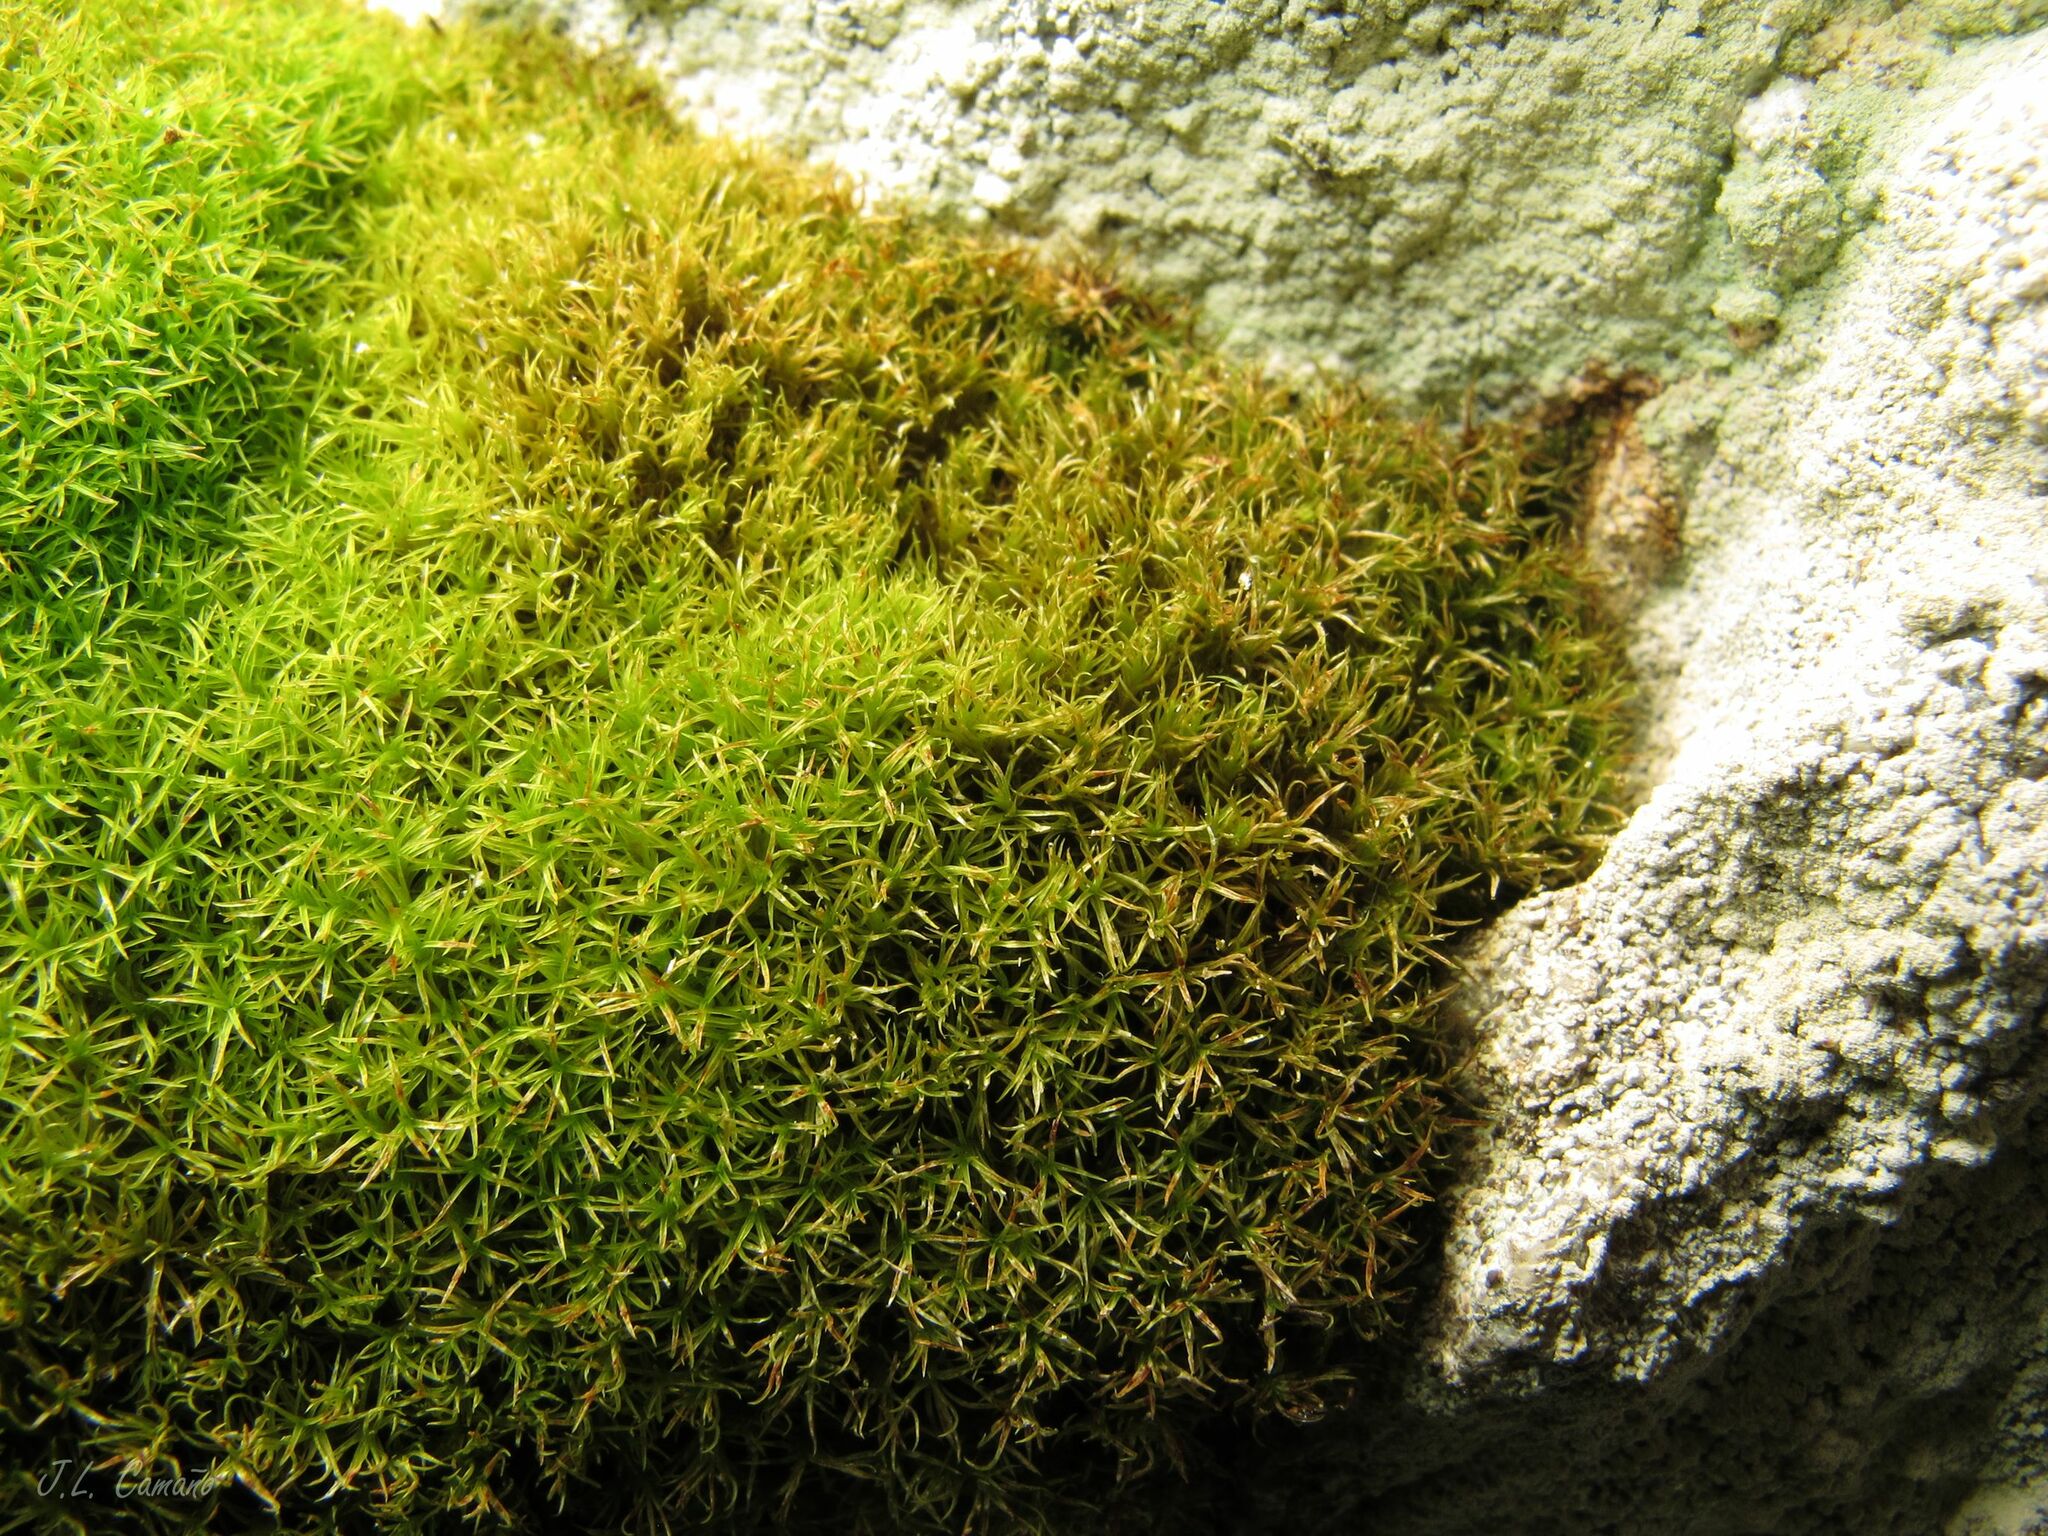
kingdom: Plantae
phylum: Bryophyta
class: Bryopsida
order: Dicranales
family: Amphidiaceae
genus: Amphidium
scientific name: Amphidium mougeotii
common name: Mougeot's yoke moss
